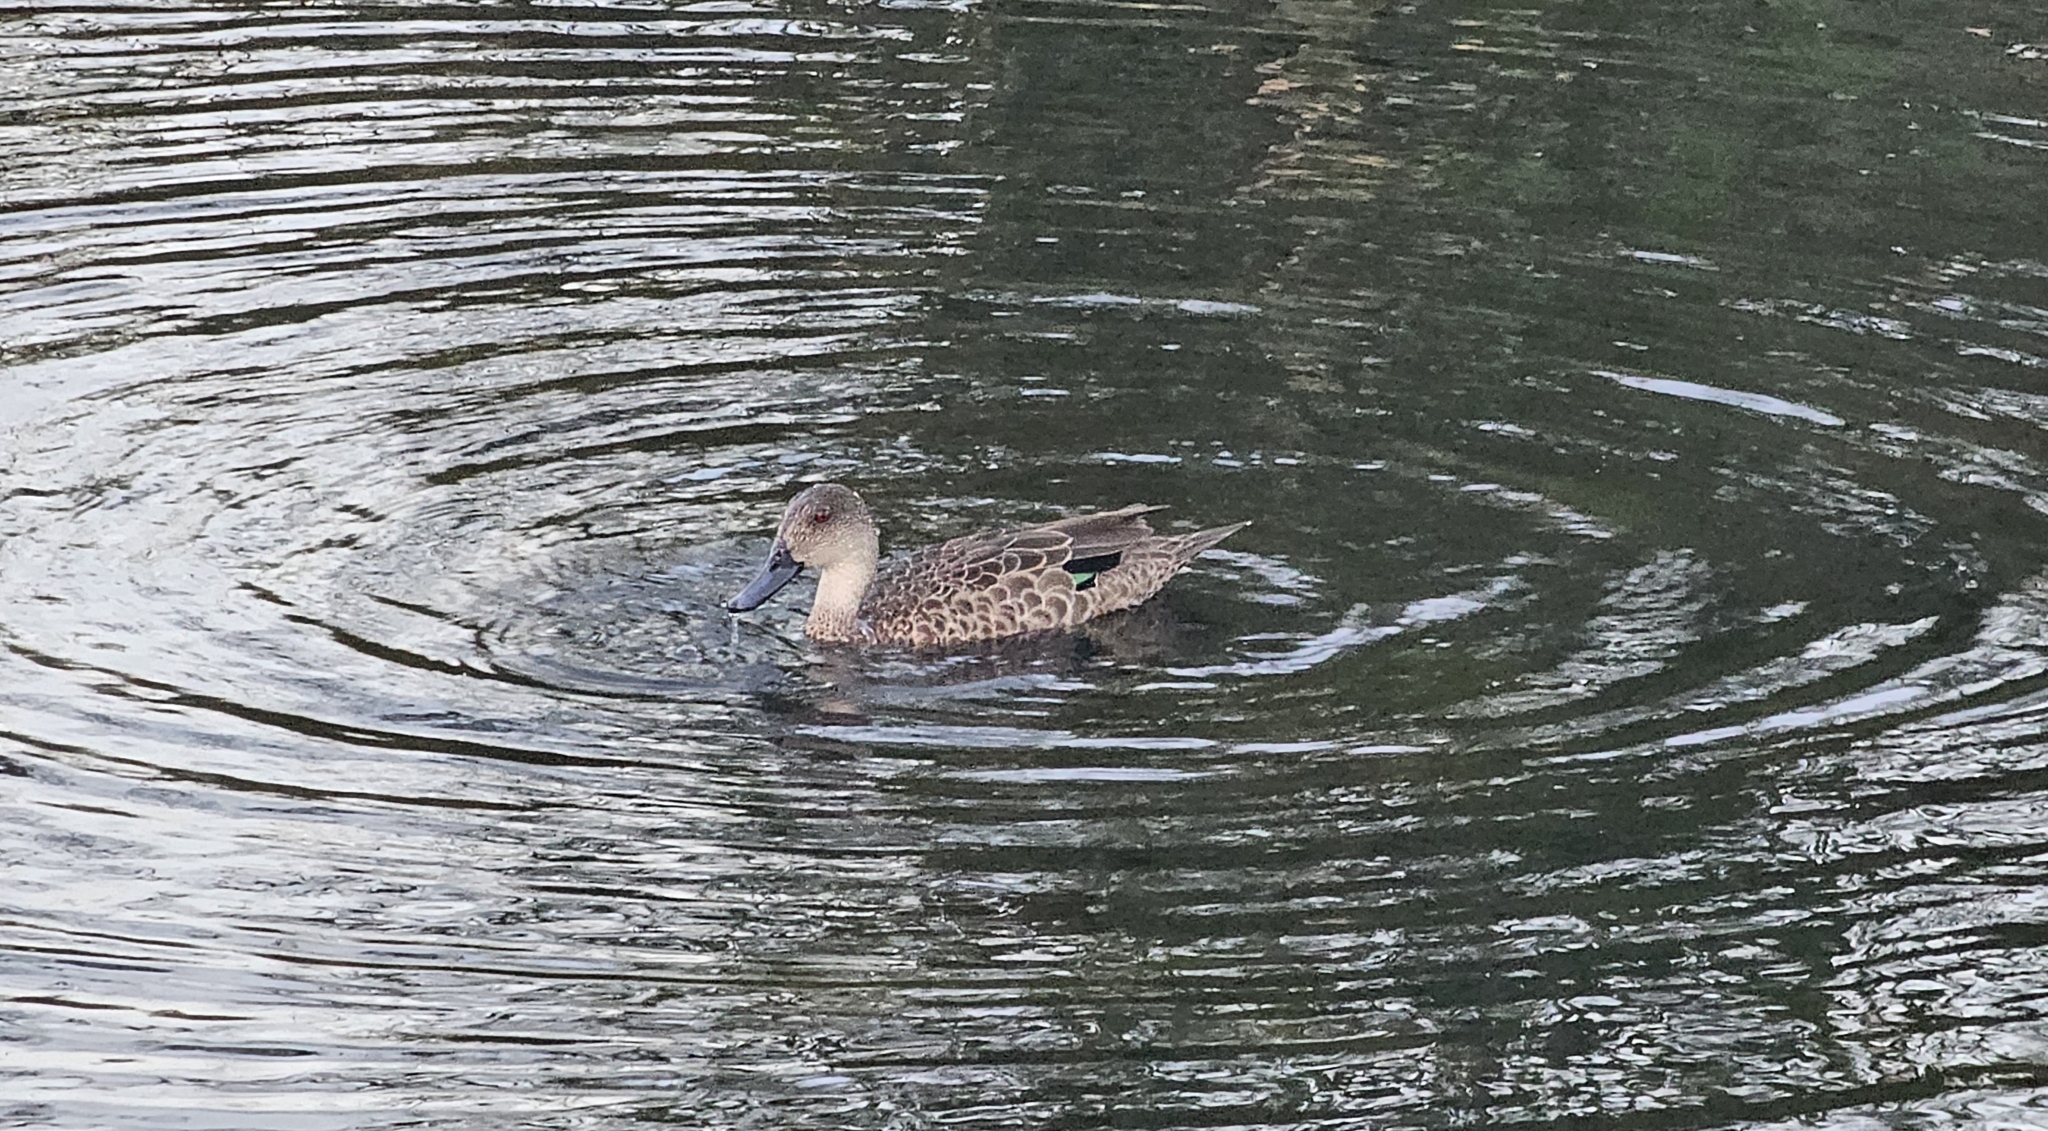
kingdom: Animalia
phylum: Chordata
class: Aves
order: Anseriformes
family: Anatidae
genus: Anas
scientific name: Anas gracilis
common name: Grey teal
